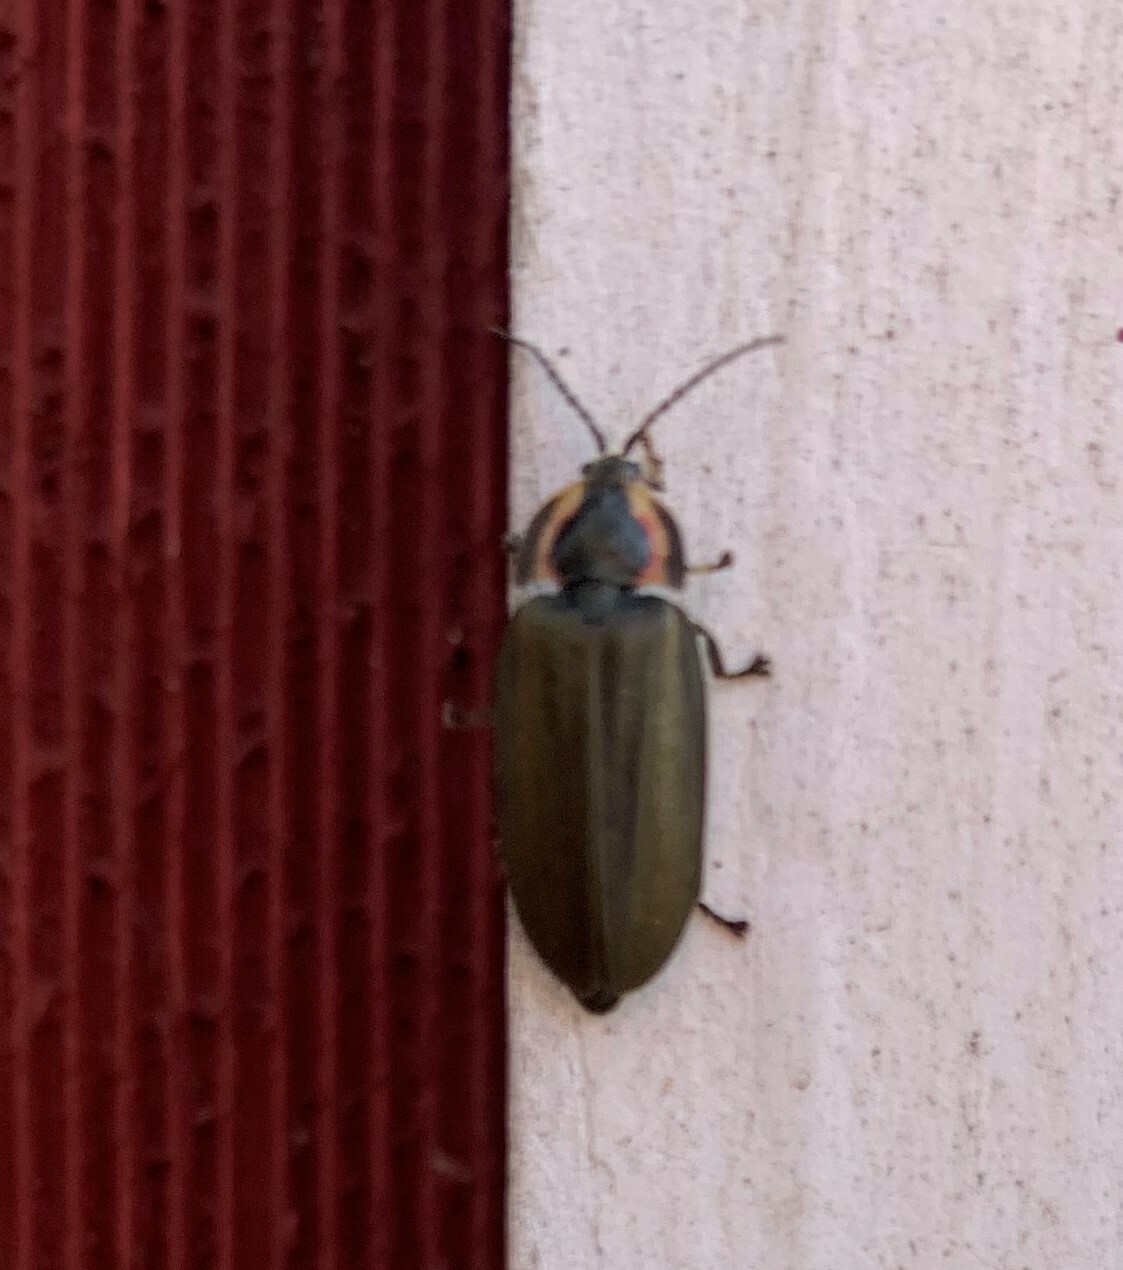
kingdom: Animalia
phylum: Arthropoda
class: Insecta
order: Coleoptera
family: Lampyridae
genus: Photinus
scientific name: Photinus corrusca
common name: Winter firefly
